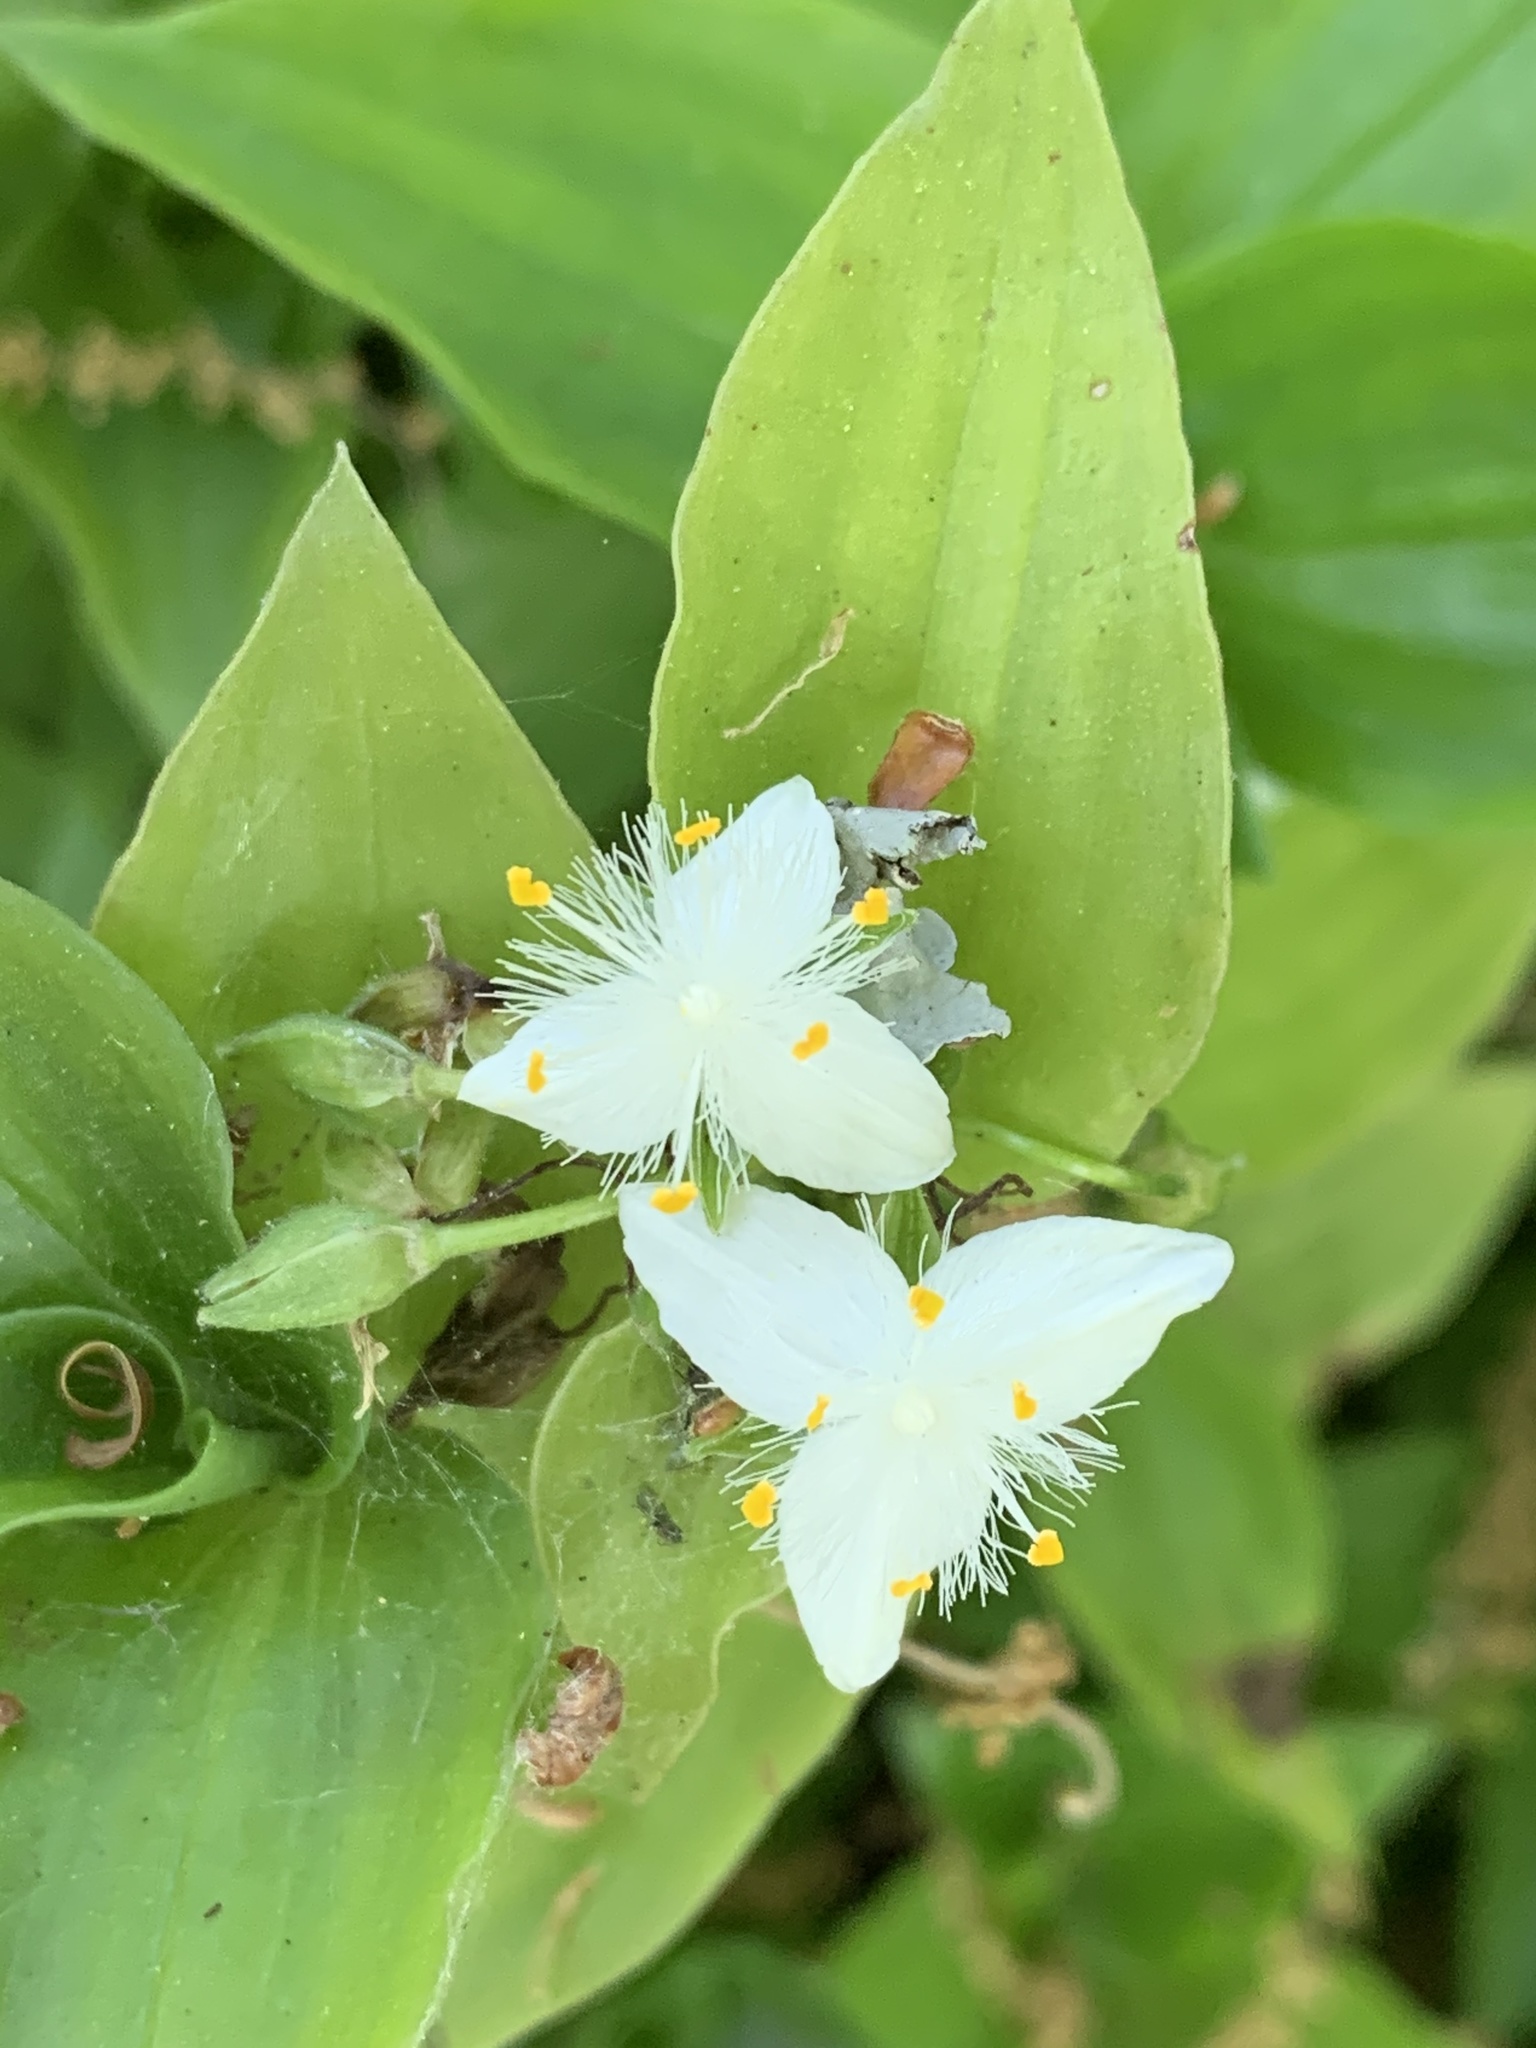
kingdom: Plantae
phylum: Tracheophyta
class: Liliopsida
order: Commelinales
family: Commelinaceae
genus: Tradescantia
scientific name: Tradescantia fluminensis
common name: Wandering-jew
